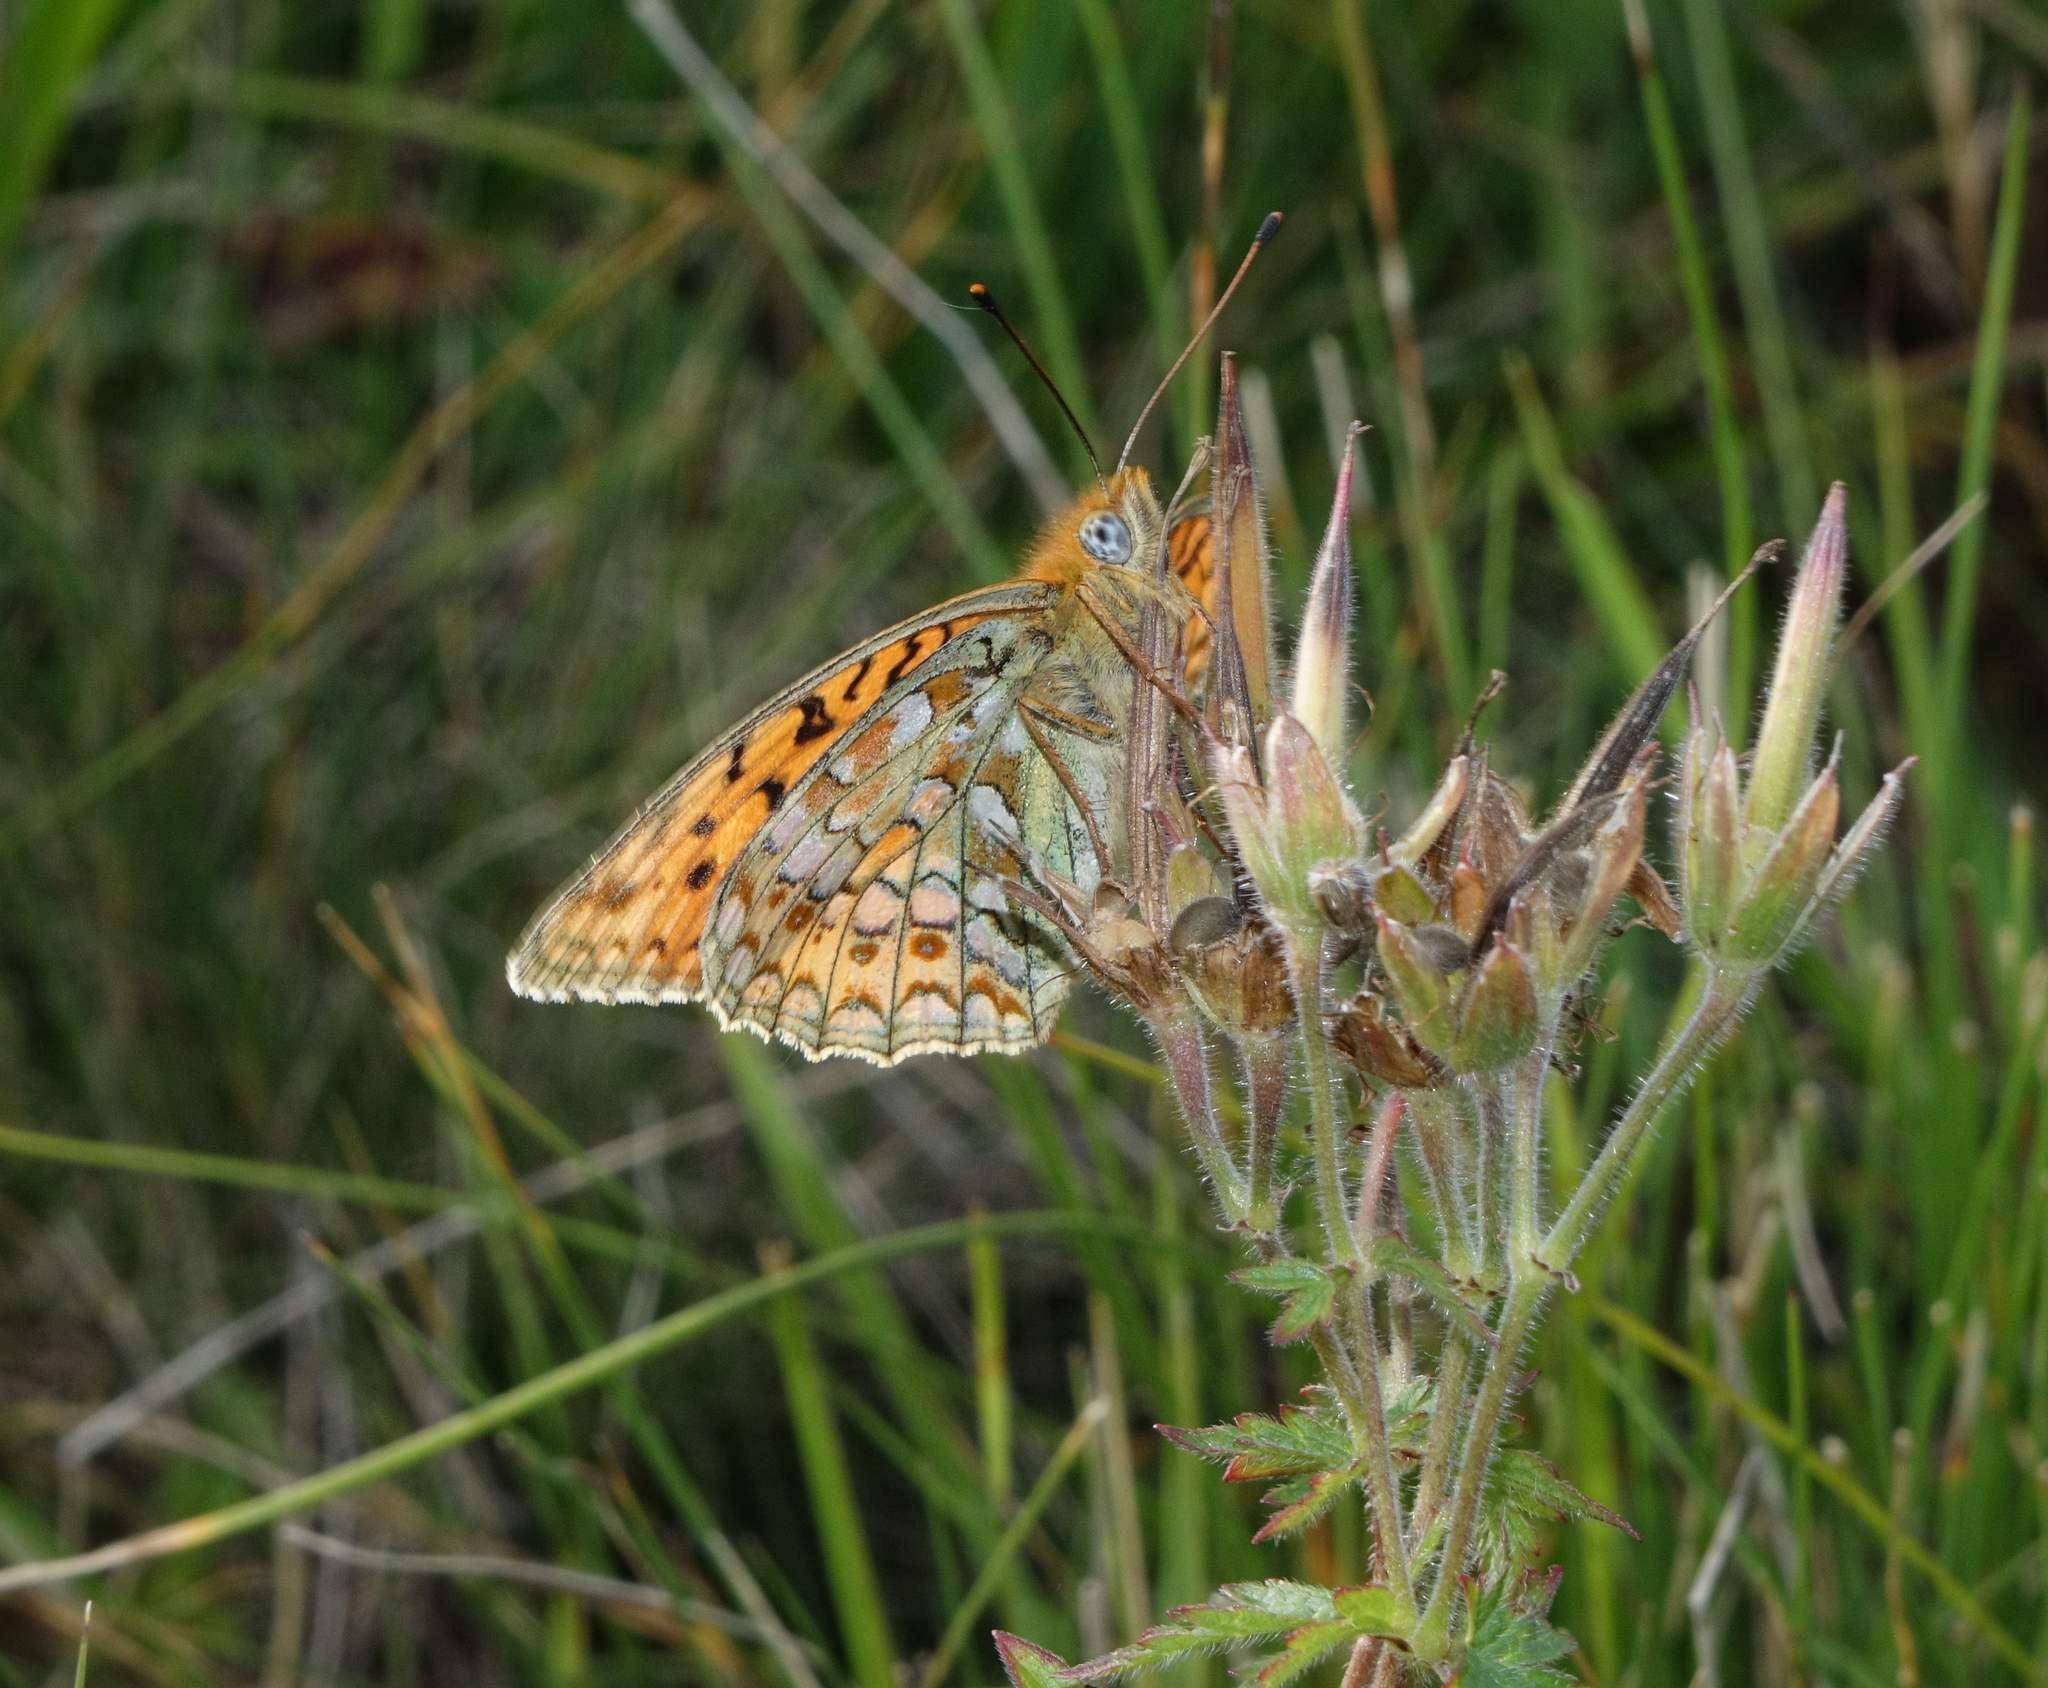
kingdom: Animalia
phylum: Arthropoda
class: Insecta
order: Lepidoptera
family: Nymphalidae
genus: Fabriciana
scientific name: Fabriciana niobe
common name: Niobe fritillary
